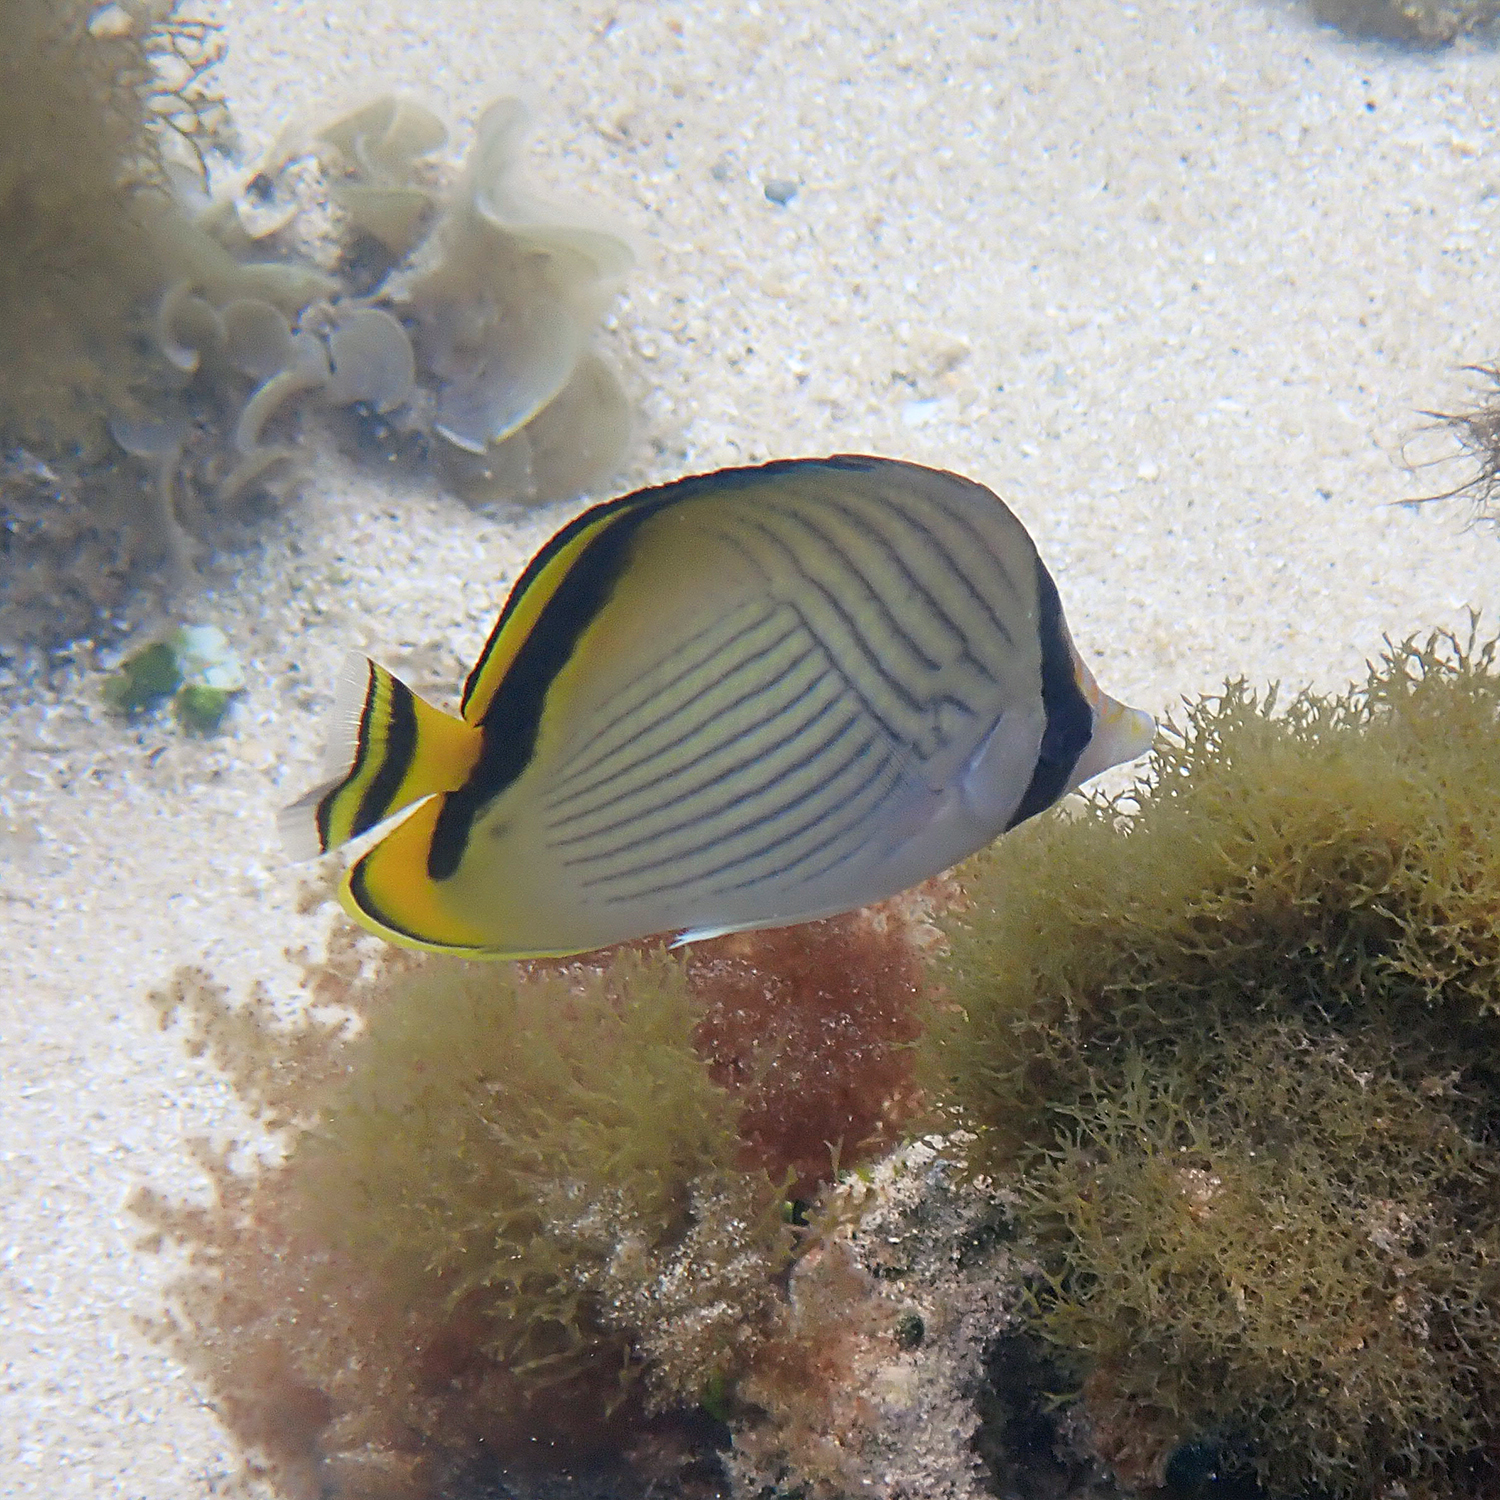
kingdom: Animalia
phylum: Chordata
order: Perciformes
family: Chaetodontidae
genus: Chaetodon
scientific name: Chaetodon vagabundus
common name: Vagabond butterflyfish
